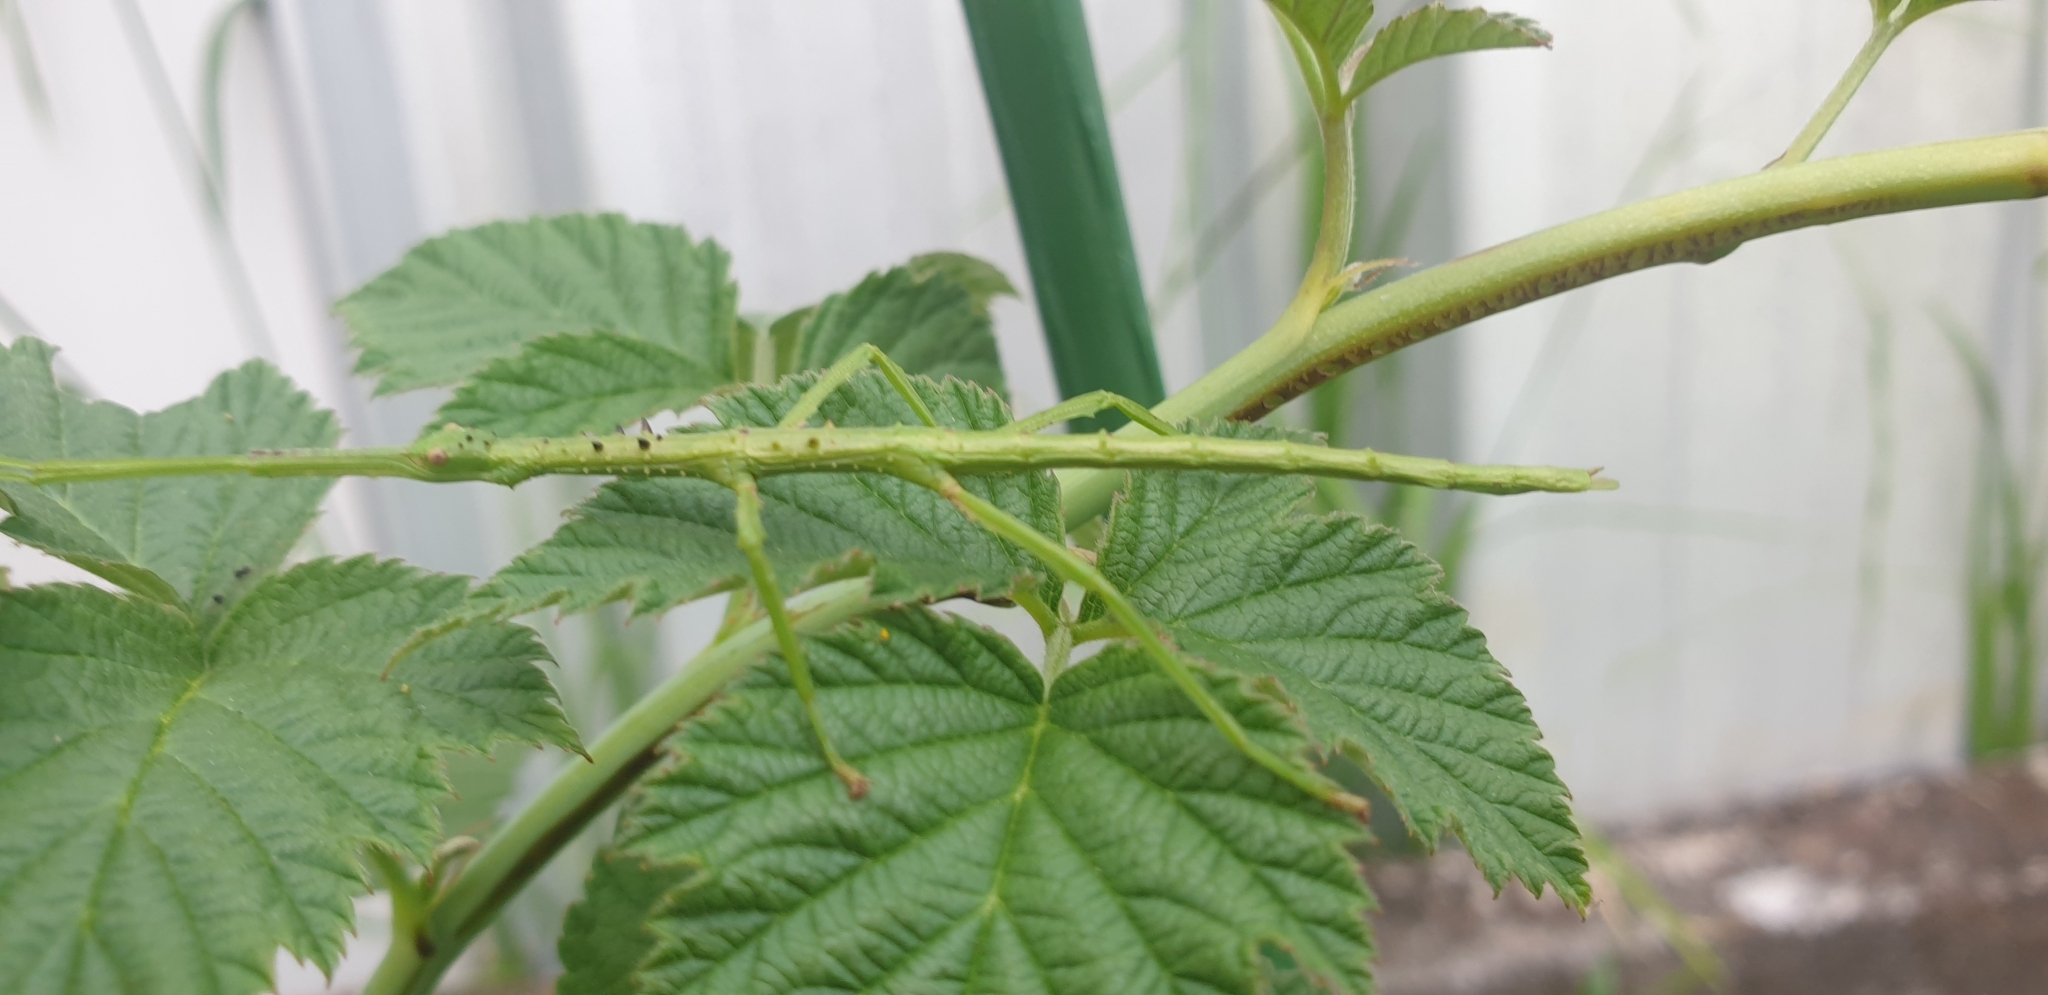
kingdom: Animalia
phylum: Arthropoda
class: Insecta
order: Phasmida
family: Phasmatidae
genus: Acanthoxyla
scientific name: Acanthoxyla prasina
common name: Black-spined stick insect
